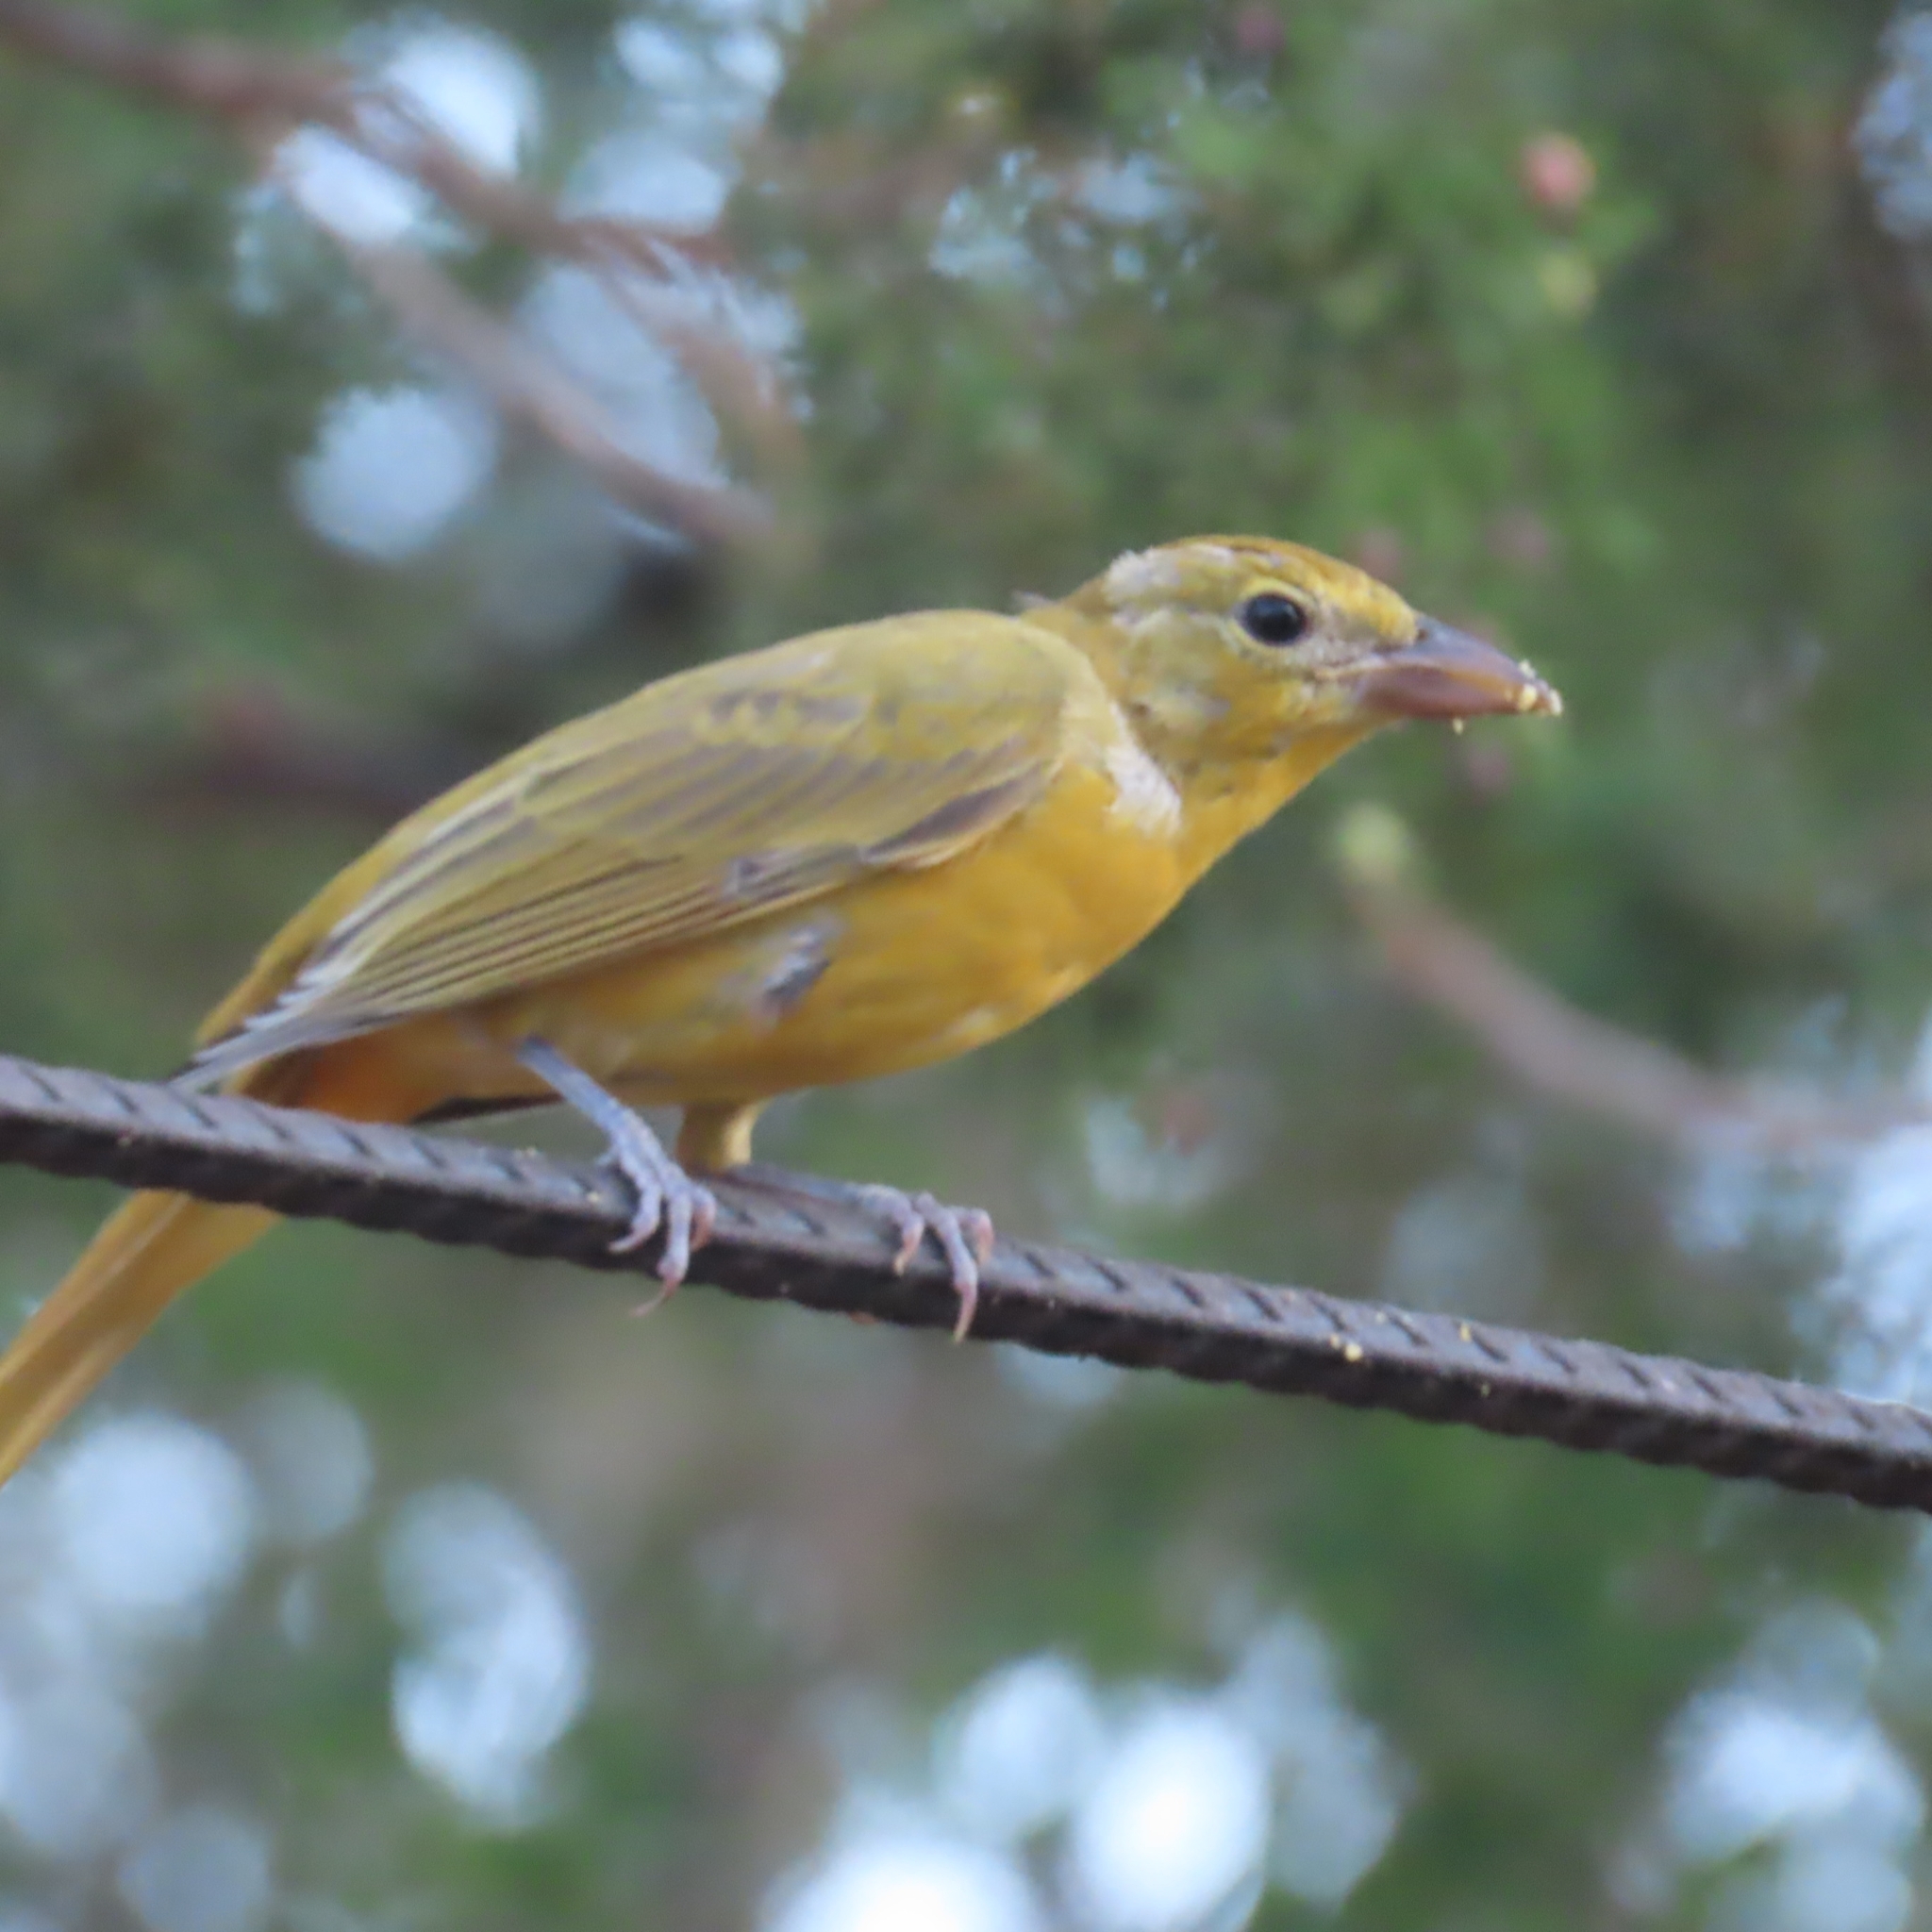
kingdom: Animalia
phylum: Chordata
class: Aves
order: Passeriformes
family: Cardinalidae
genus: Piranga
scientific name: Piranga rubra
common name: Summer tanager
